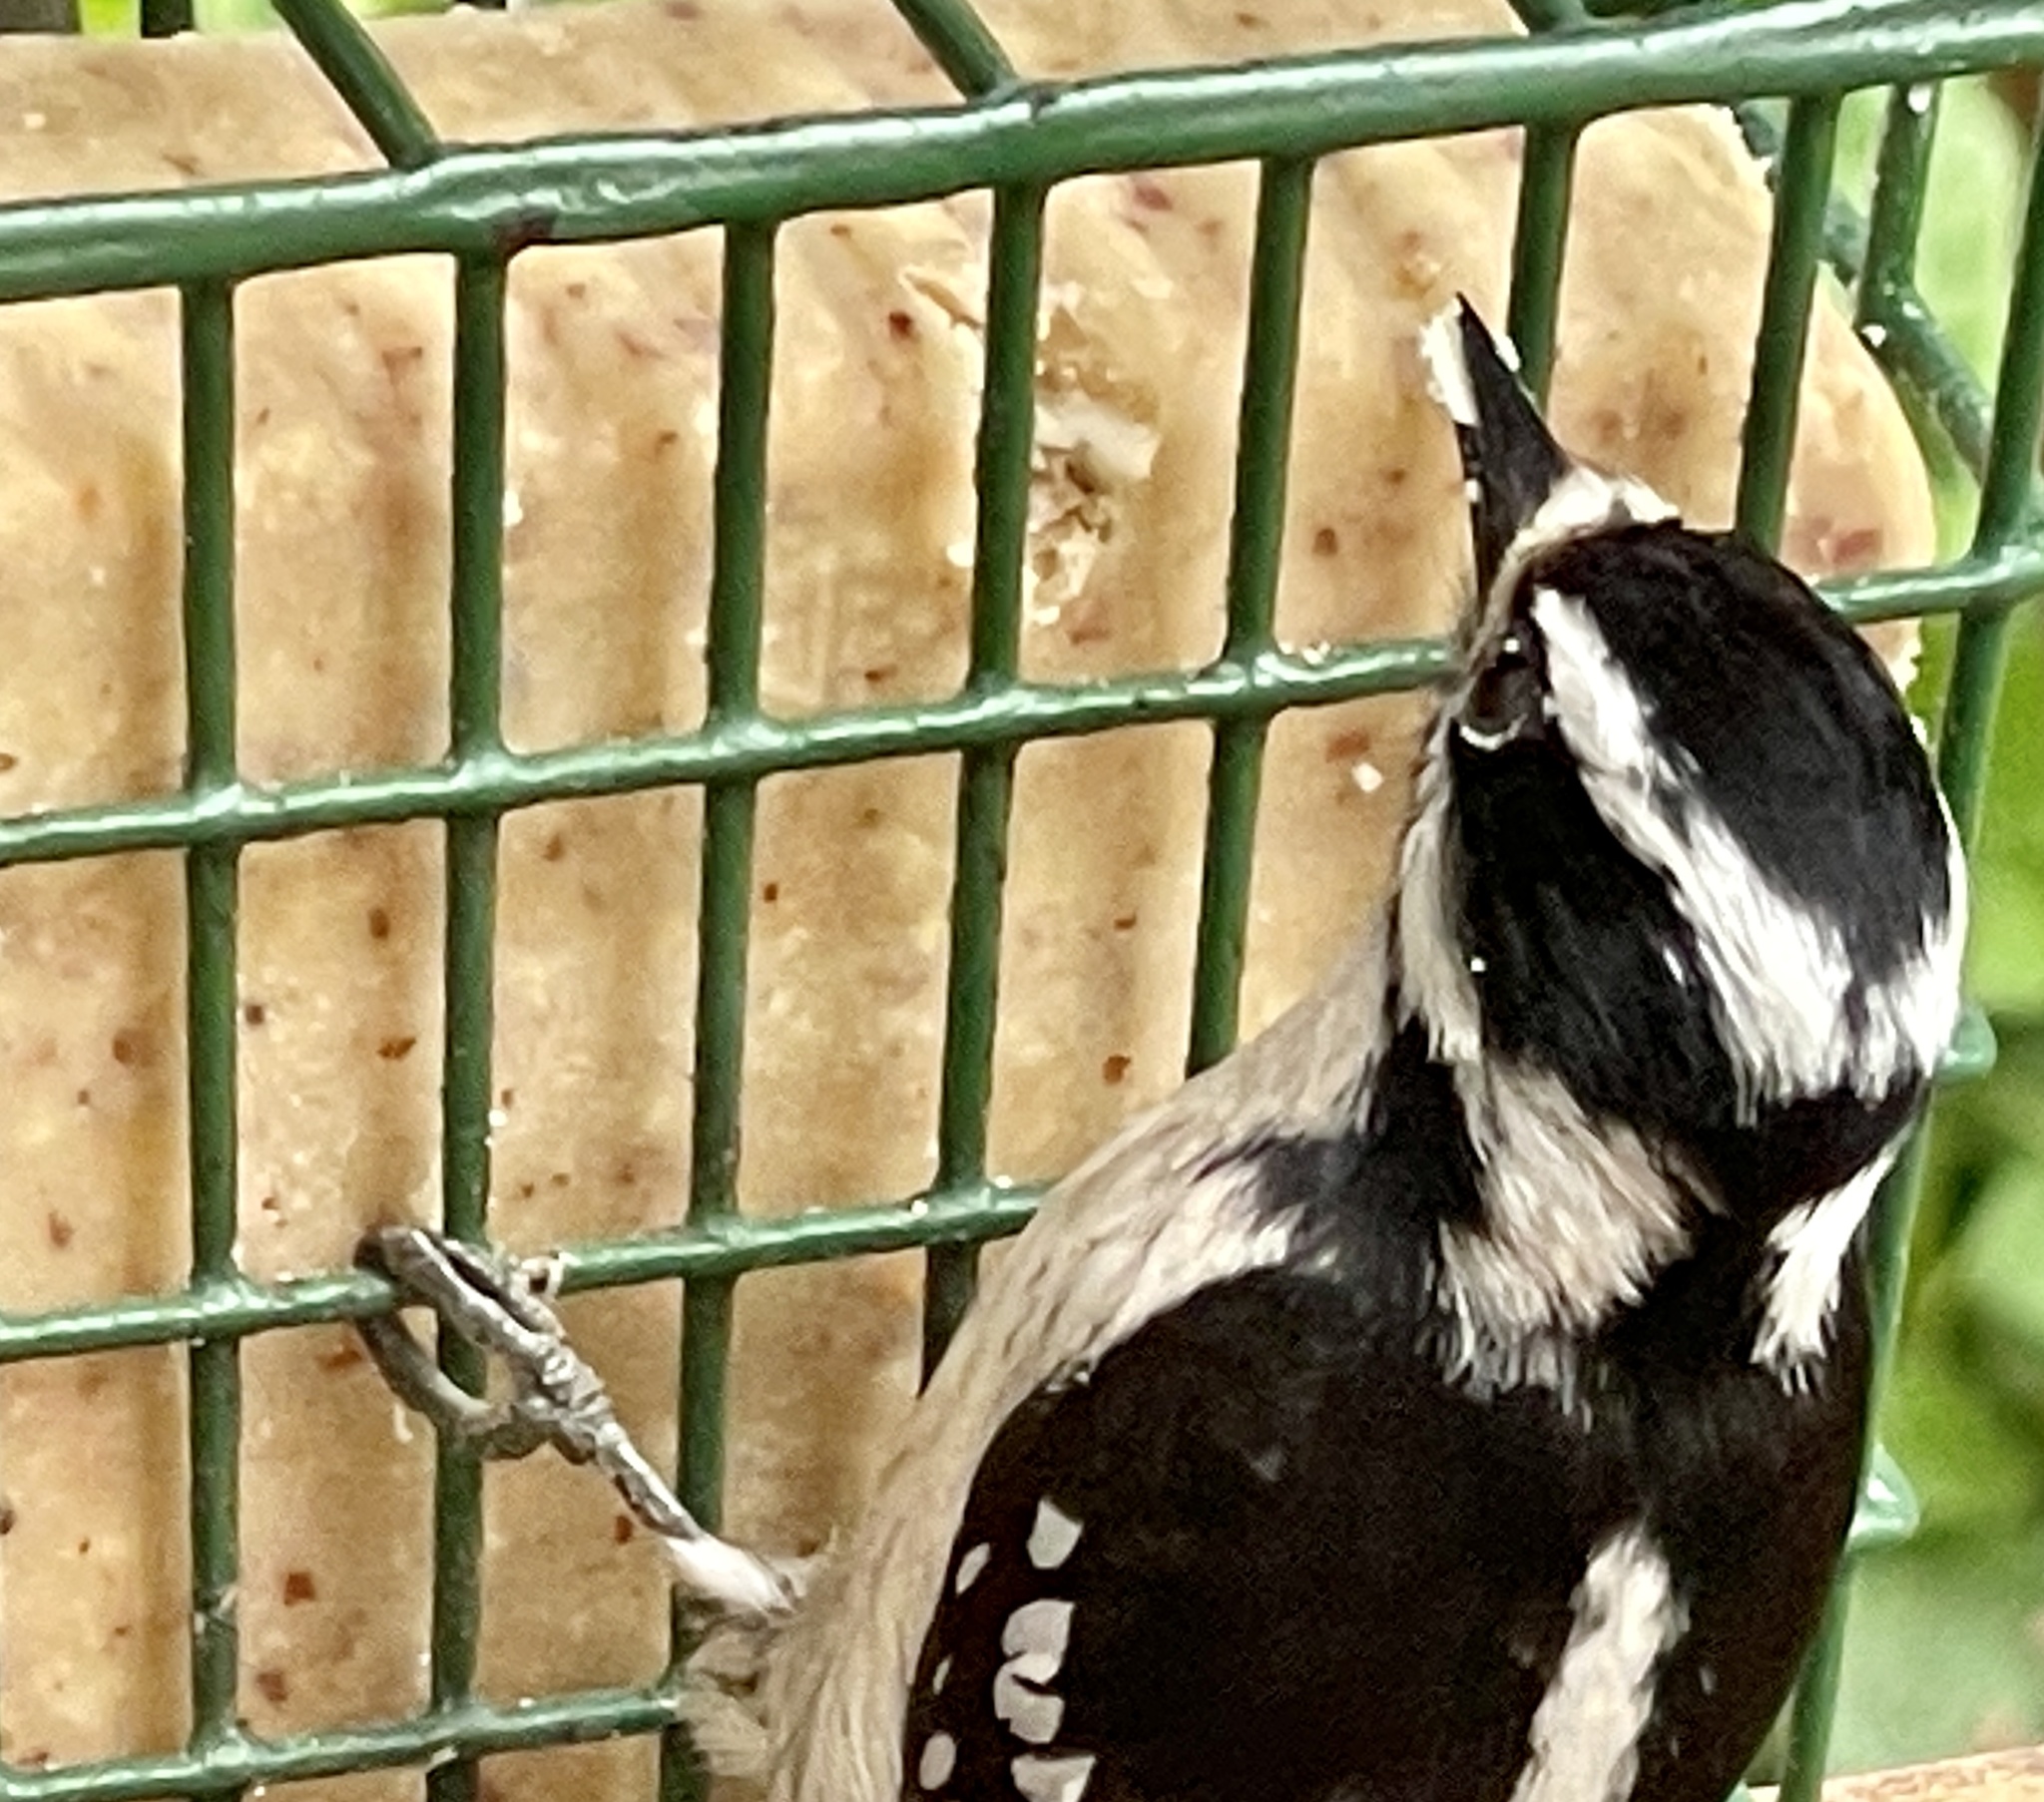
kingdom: Animalia
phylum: Chordata
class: Aves
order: Piciformes
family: Picidae
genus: Dryobates
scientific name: Dryobates pubescens
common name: Downy woodpecker
